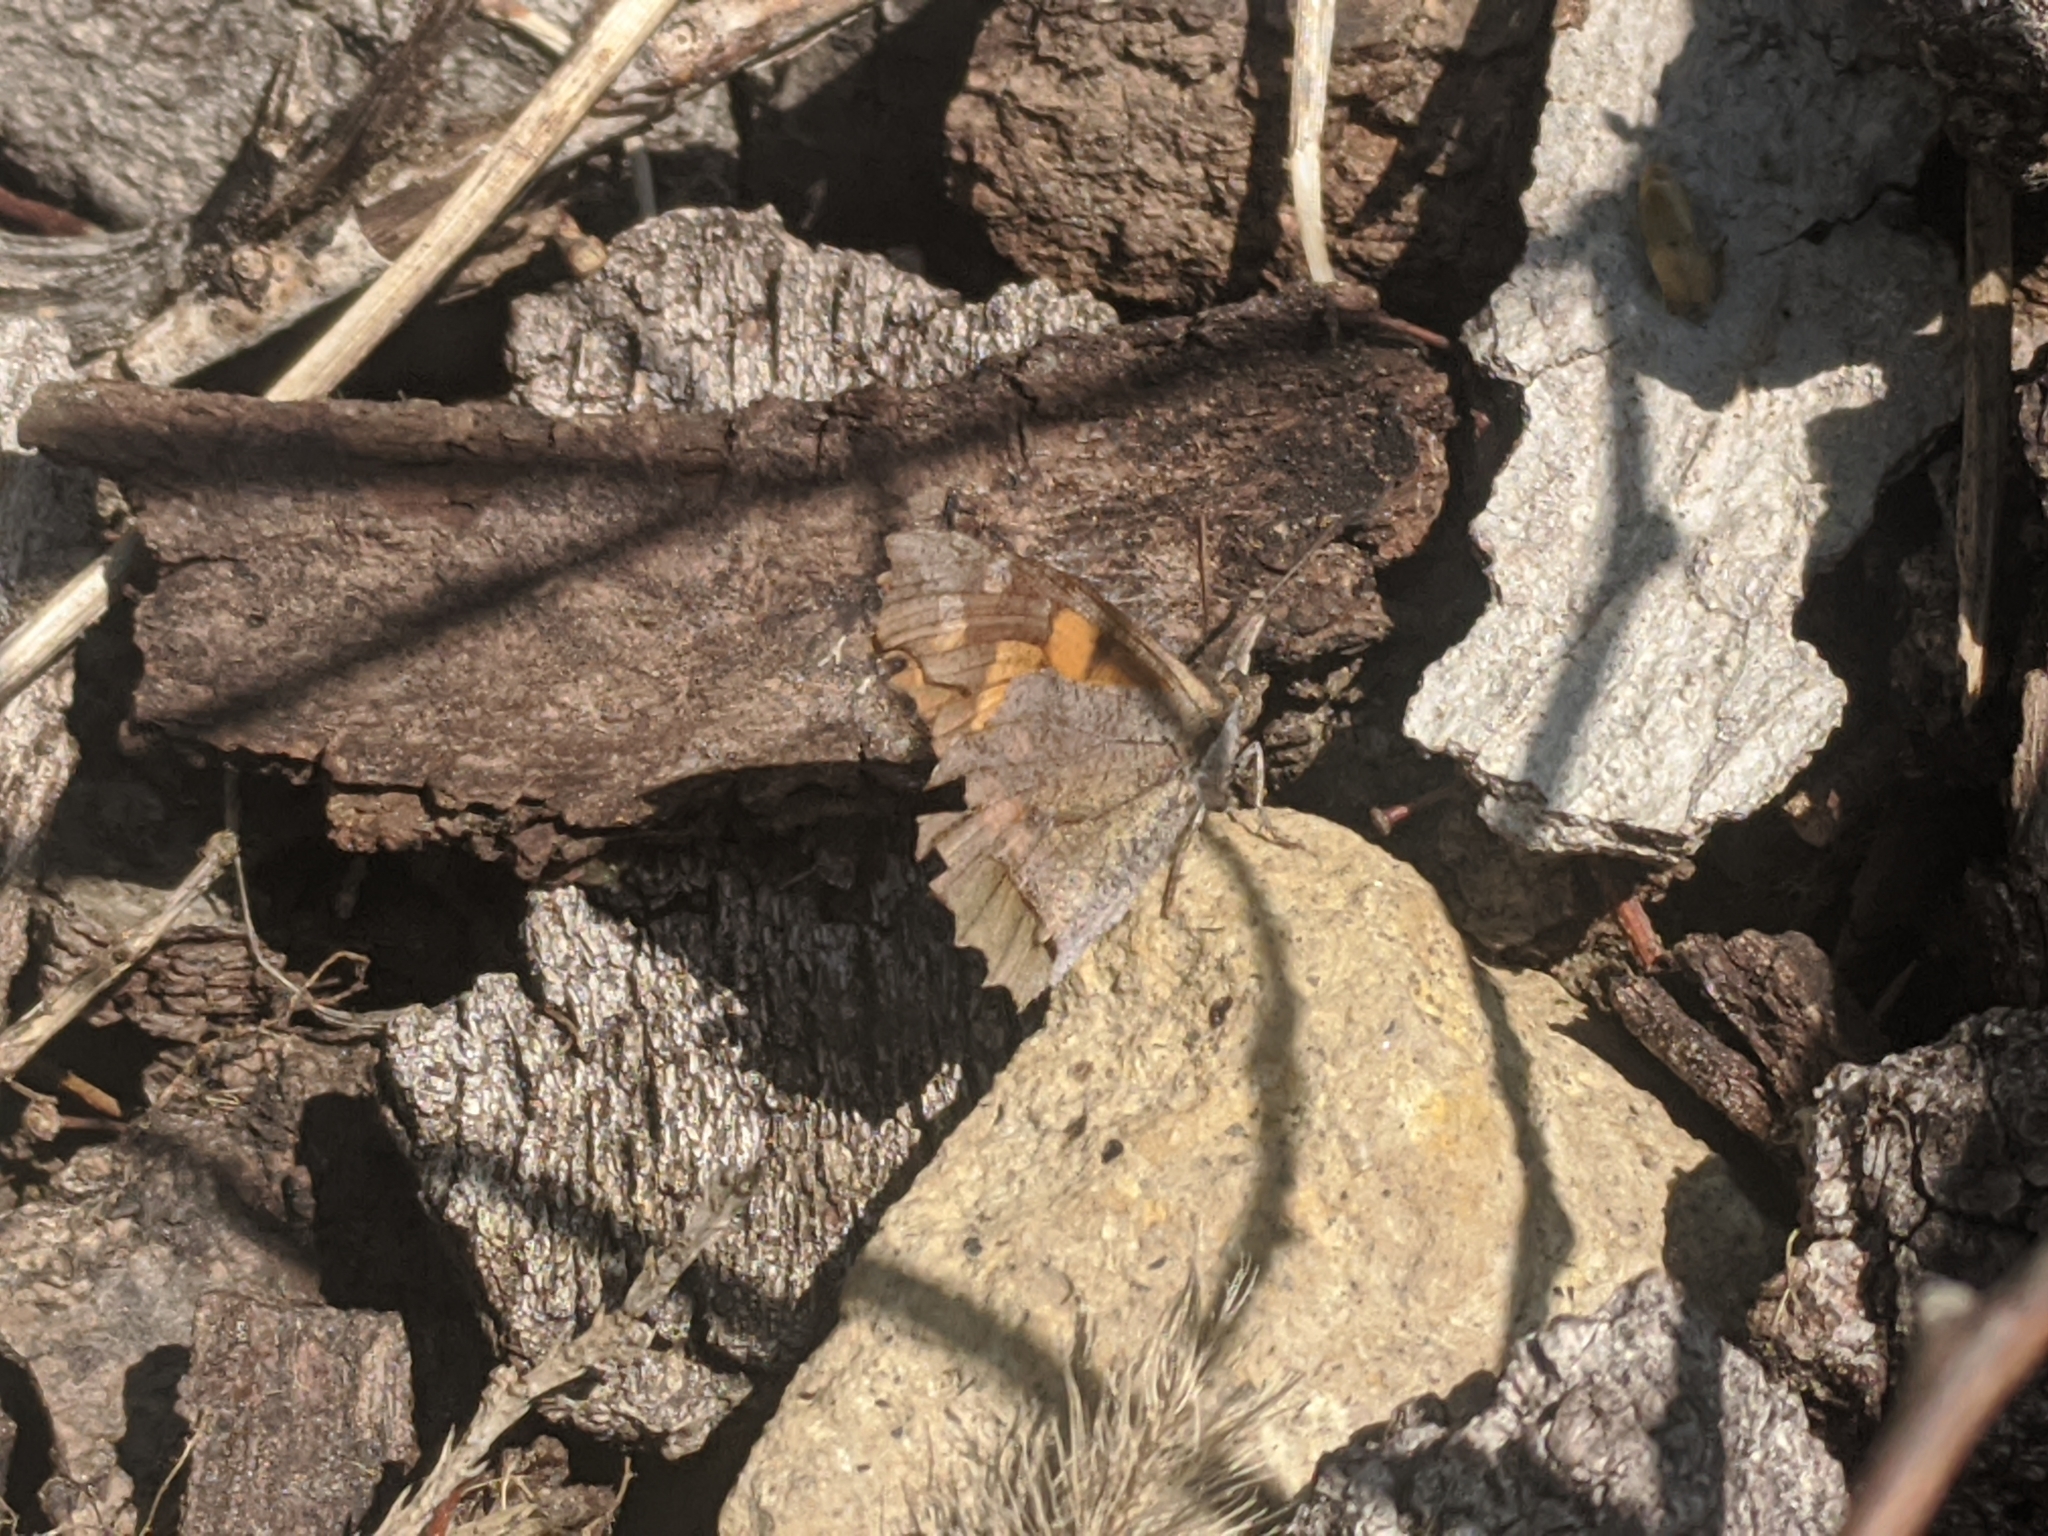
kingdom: Animalia
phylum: Arthropoda
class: Insecta
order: Lepidoptera
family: Nymphalidae
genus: Libythea
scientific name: Libythea celtis
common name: Nettle-tree butterfly
